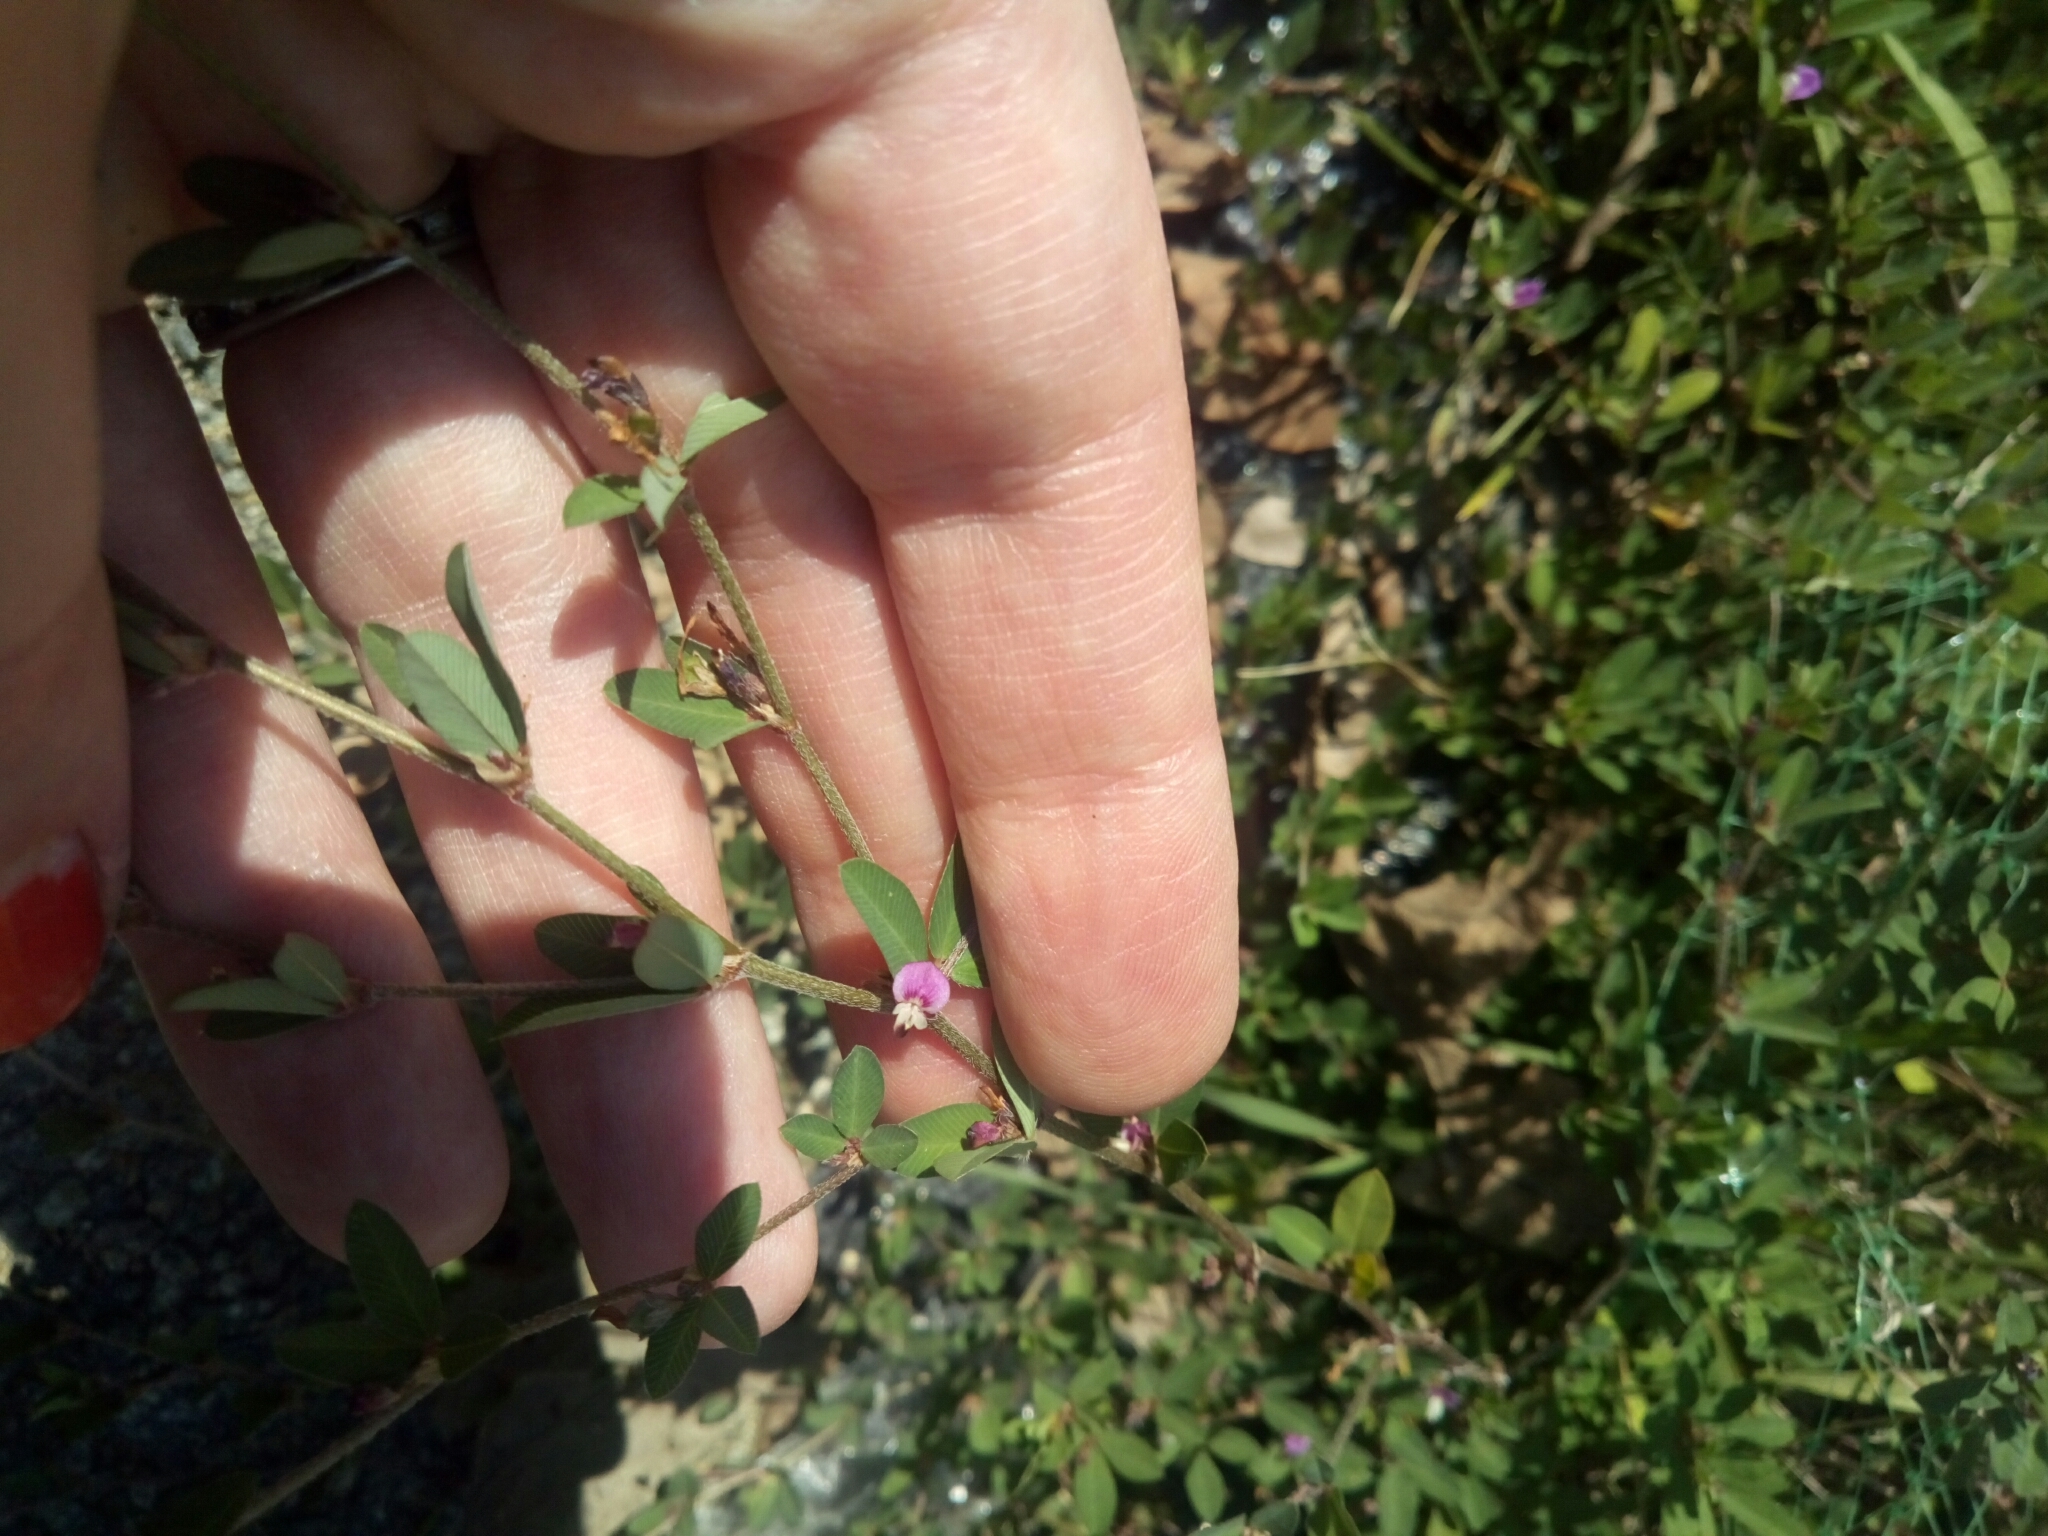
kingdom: Plantae
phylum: Tracheophyta
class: Magnoliopsida
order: Fabales
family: Fabaceae
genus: Kummerowia
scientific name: Kummerowia striata
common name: Japanese clover
